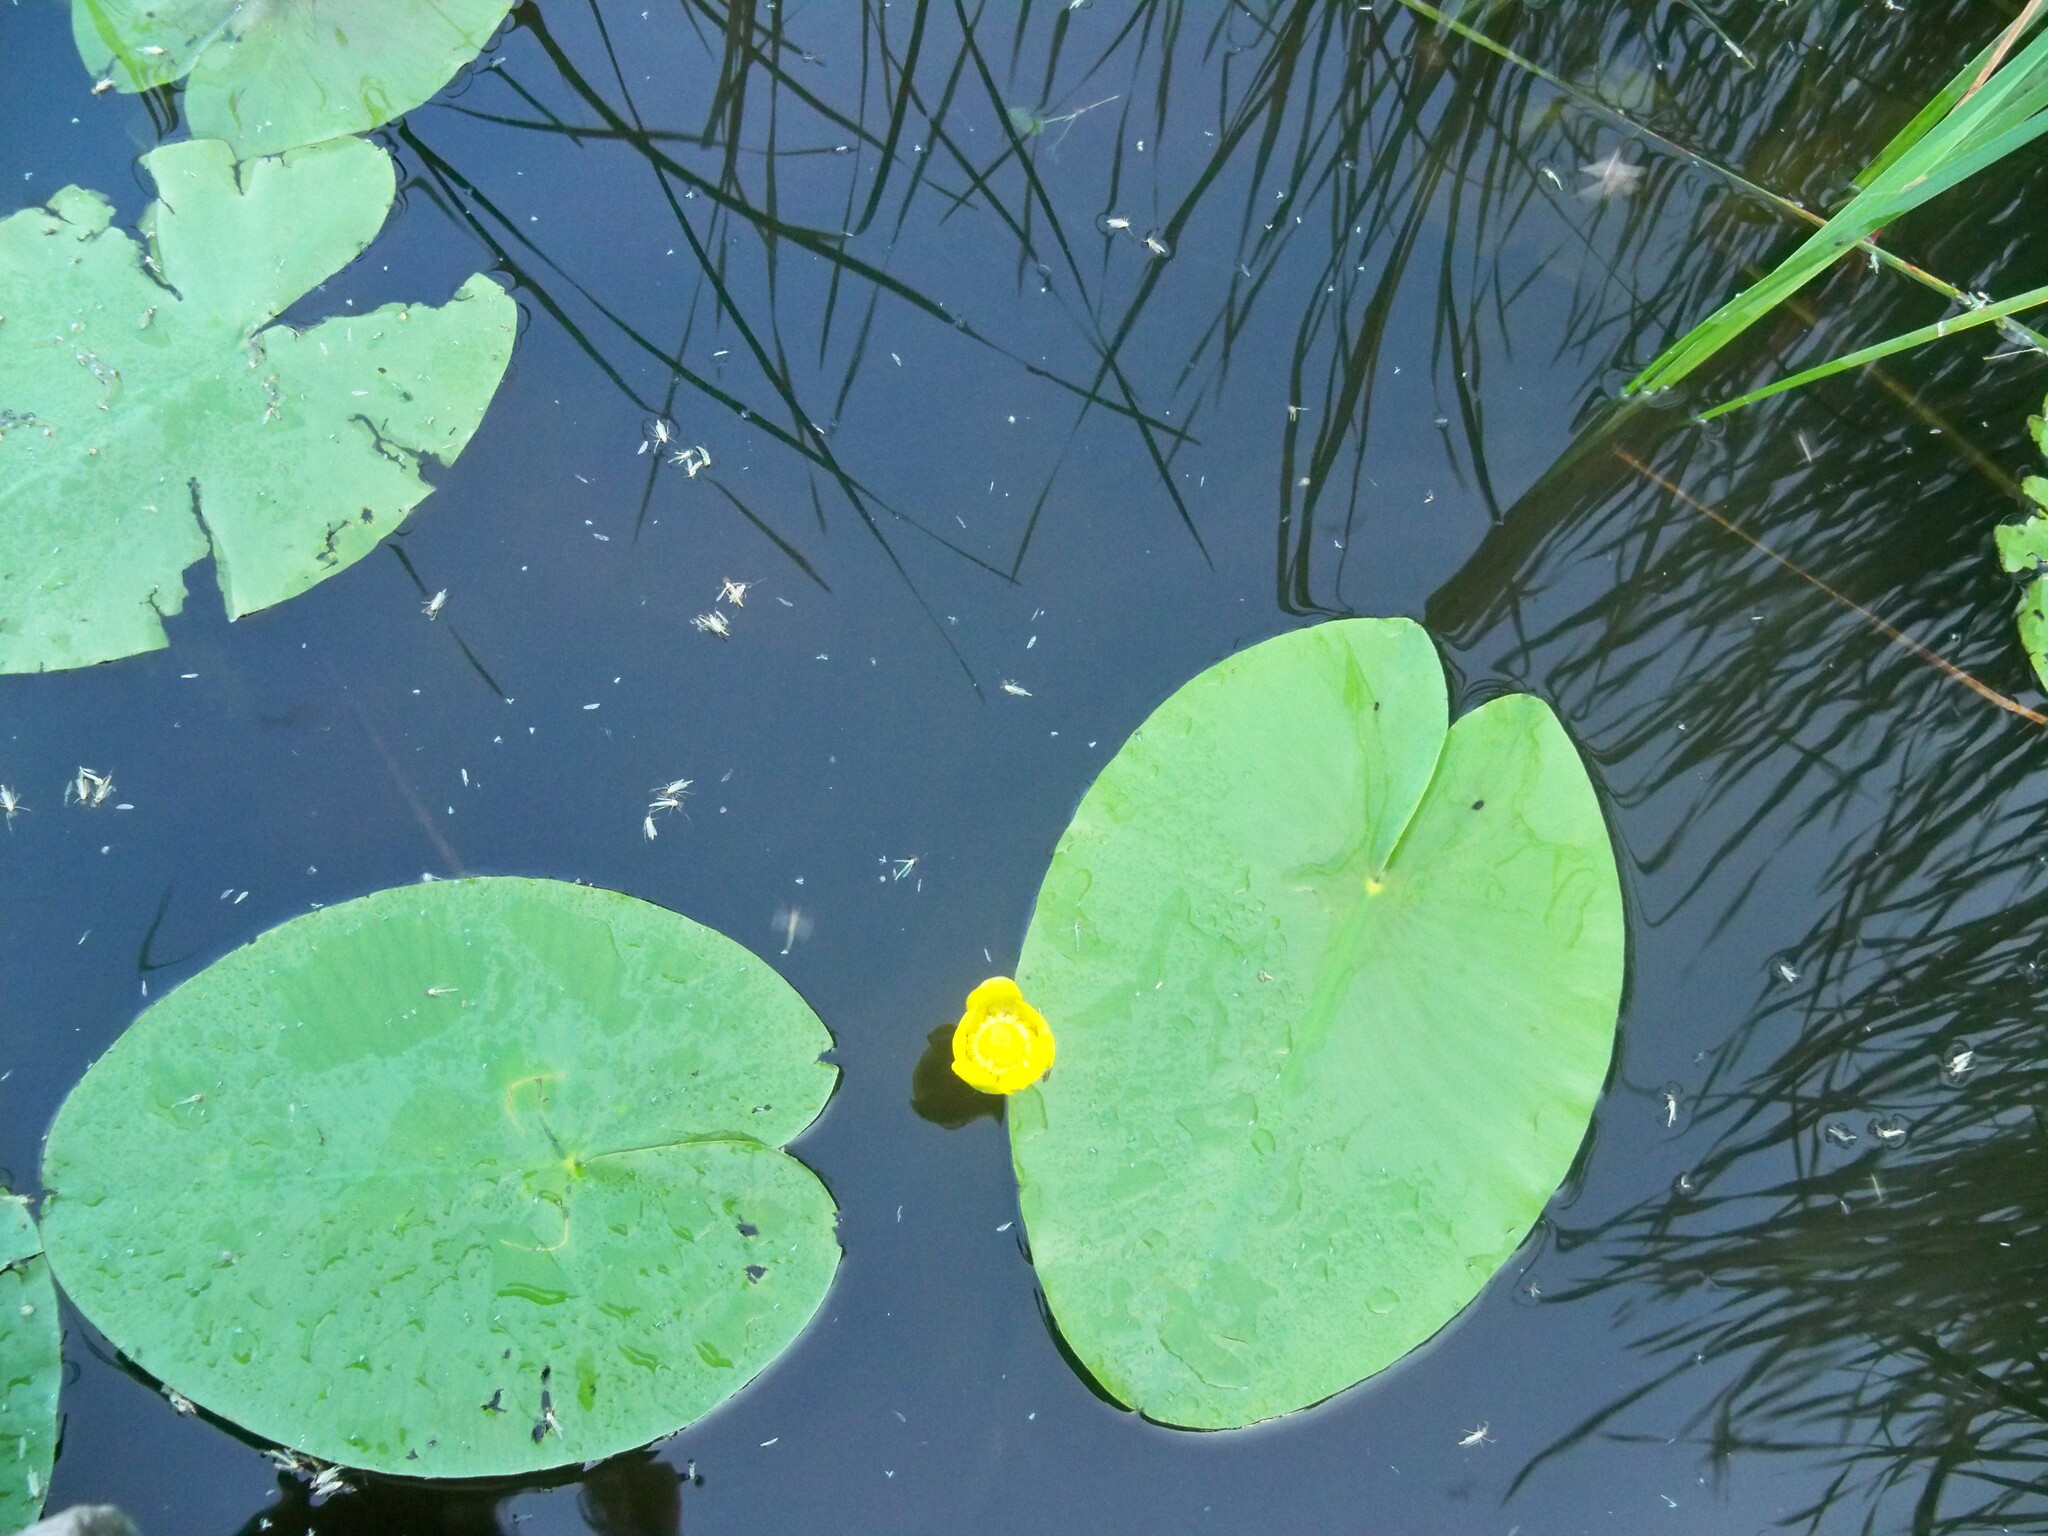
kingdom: Plantae
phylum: Tracheophyta
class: Magnoliopsida
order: Nymphaeales
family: Nymphaeaceae
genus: Nuphar
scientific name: Nuphar lutea
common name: Yellow water-lily
